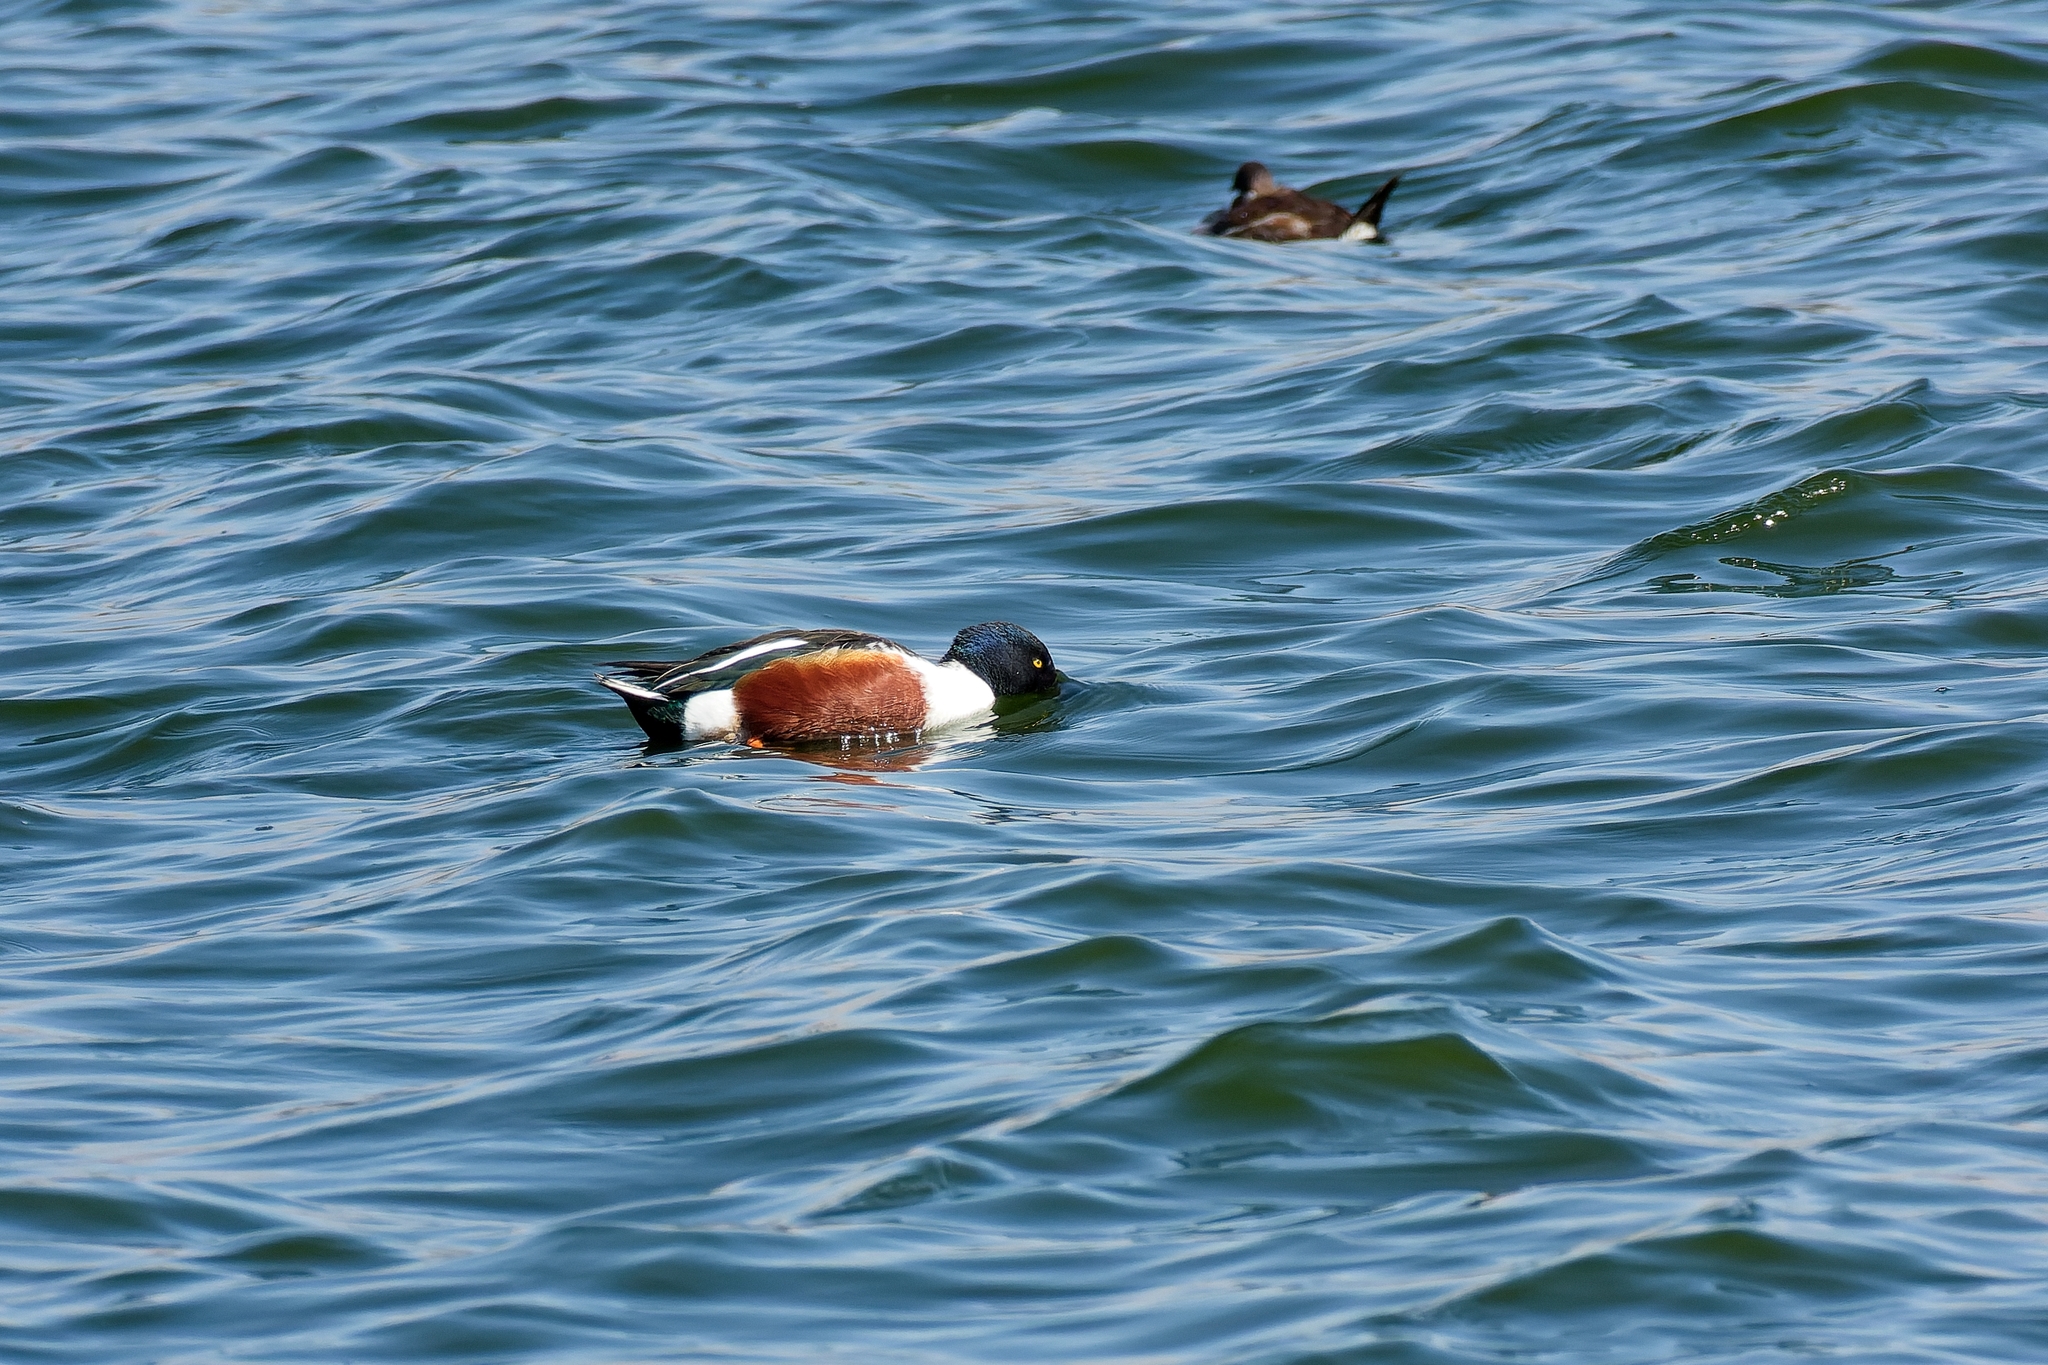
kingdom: Animalia
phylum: Chordata
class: Aves
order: Anseriformes
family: Anatidae
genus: Spatula
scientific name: Spatula clypeata
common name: Northern shoveler
